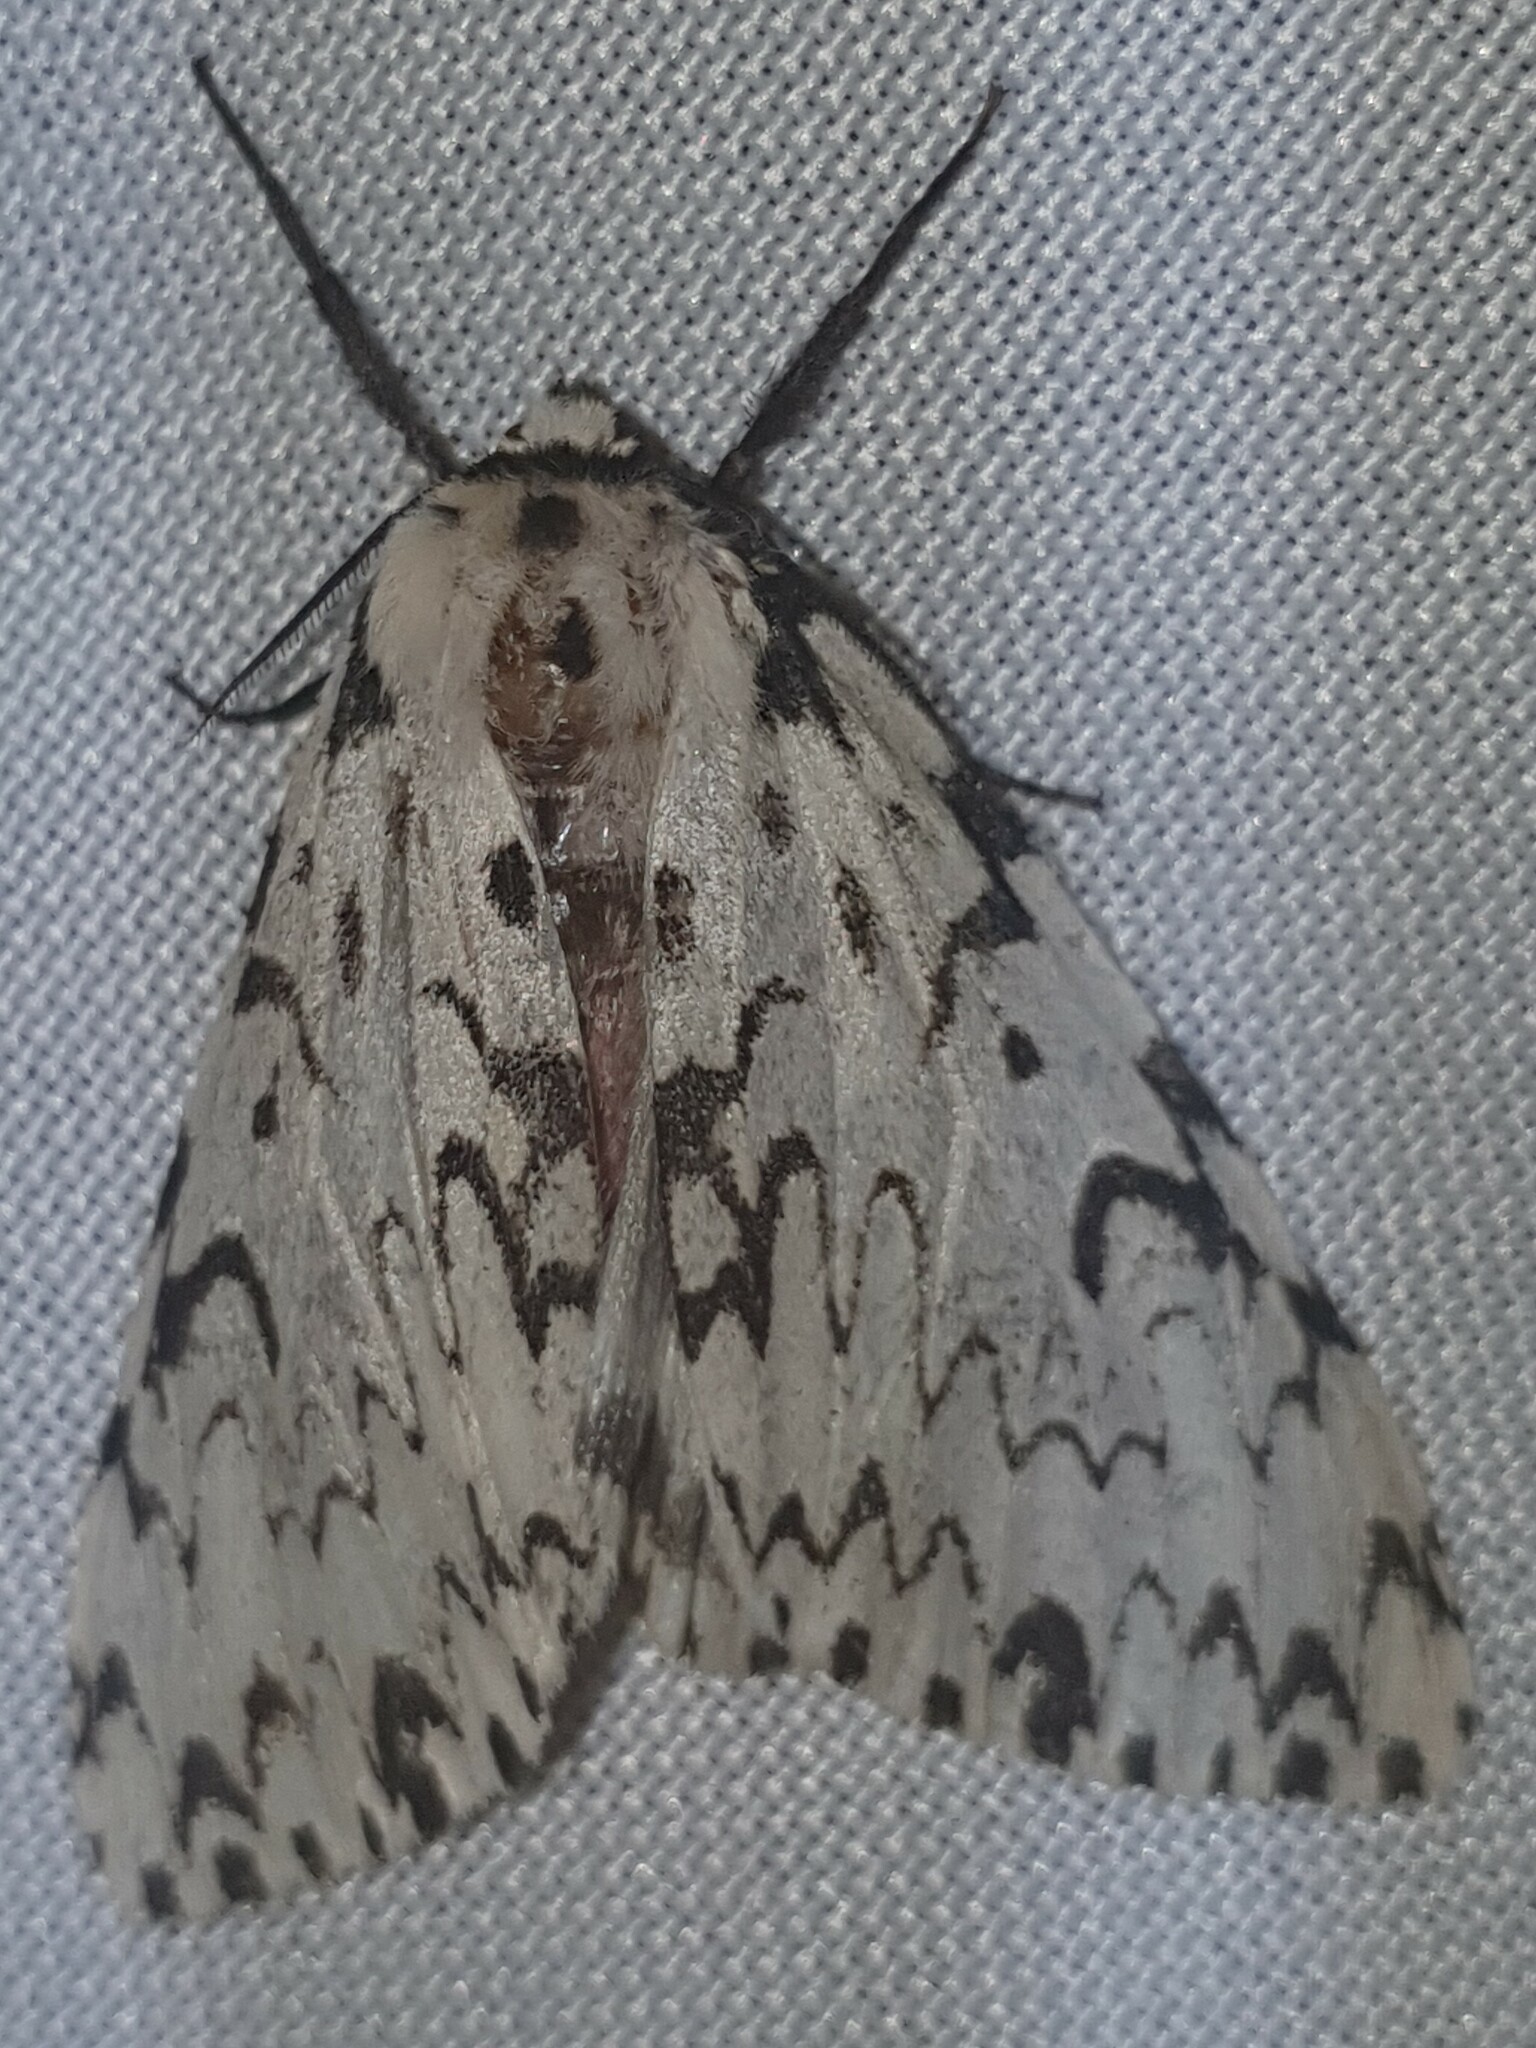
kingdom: Animalia
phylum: Arthropoda
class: Insecta
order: Lepidoptera
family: Erebidae
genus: Lymantria
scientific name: Lymantria monacha
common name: Black arches
